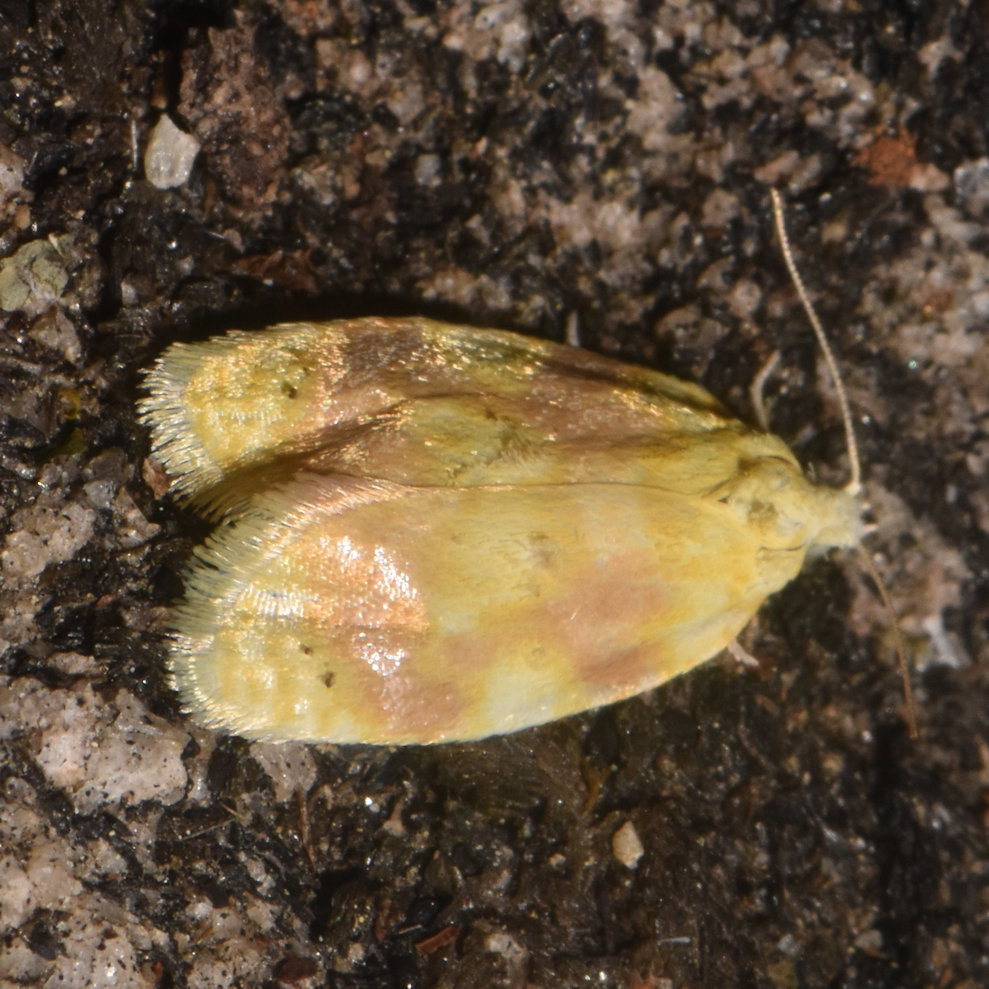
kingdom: Animalia
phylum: Arthropoda
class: Insecta
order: Lepidoptera
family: Tortricidae
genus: Acleris
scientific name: Acleris semipurpurana
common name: Oak leaftier moth
